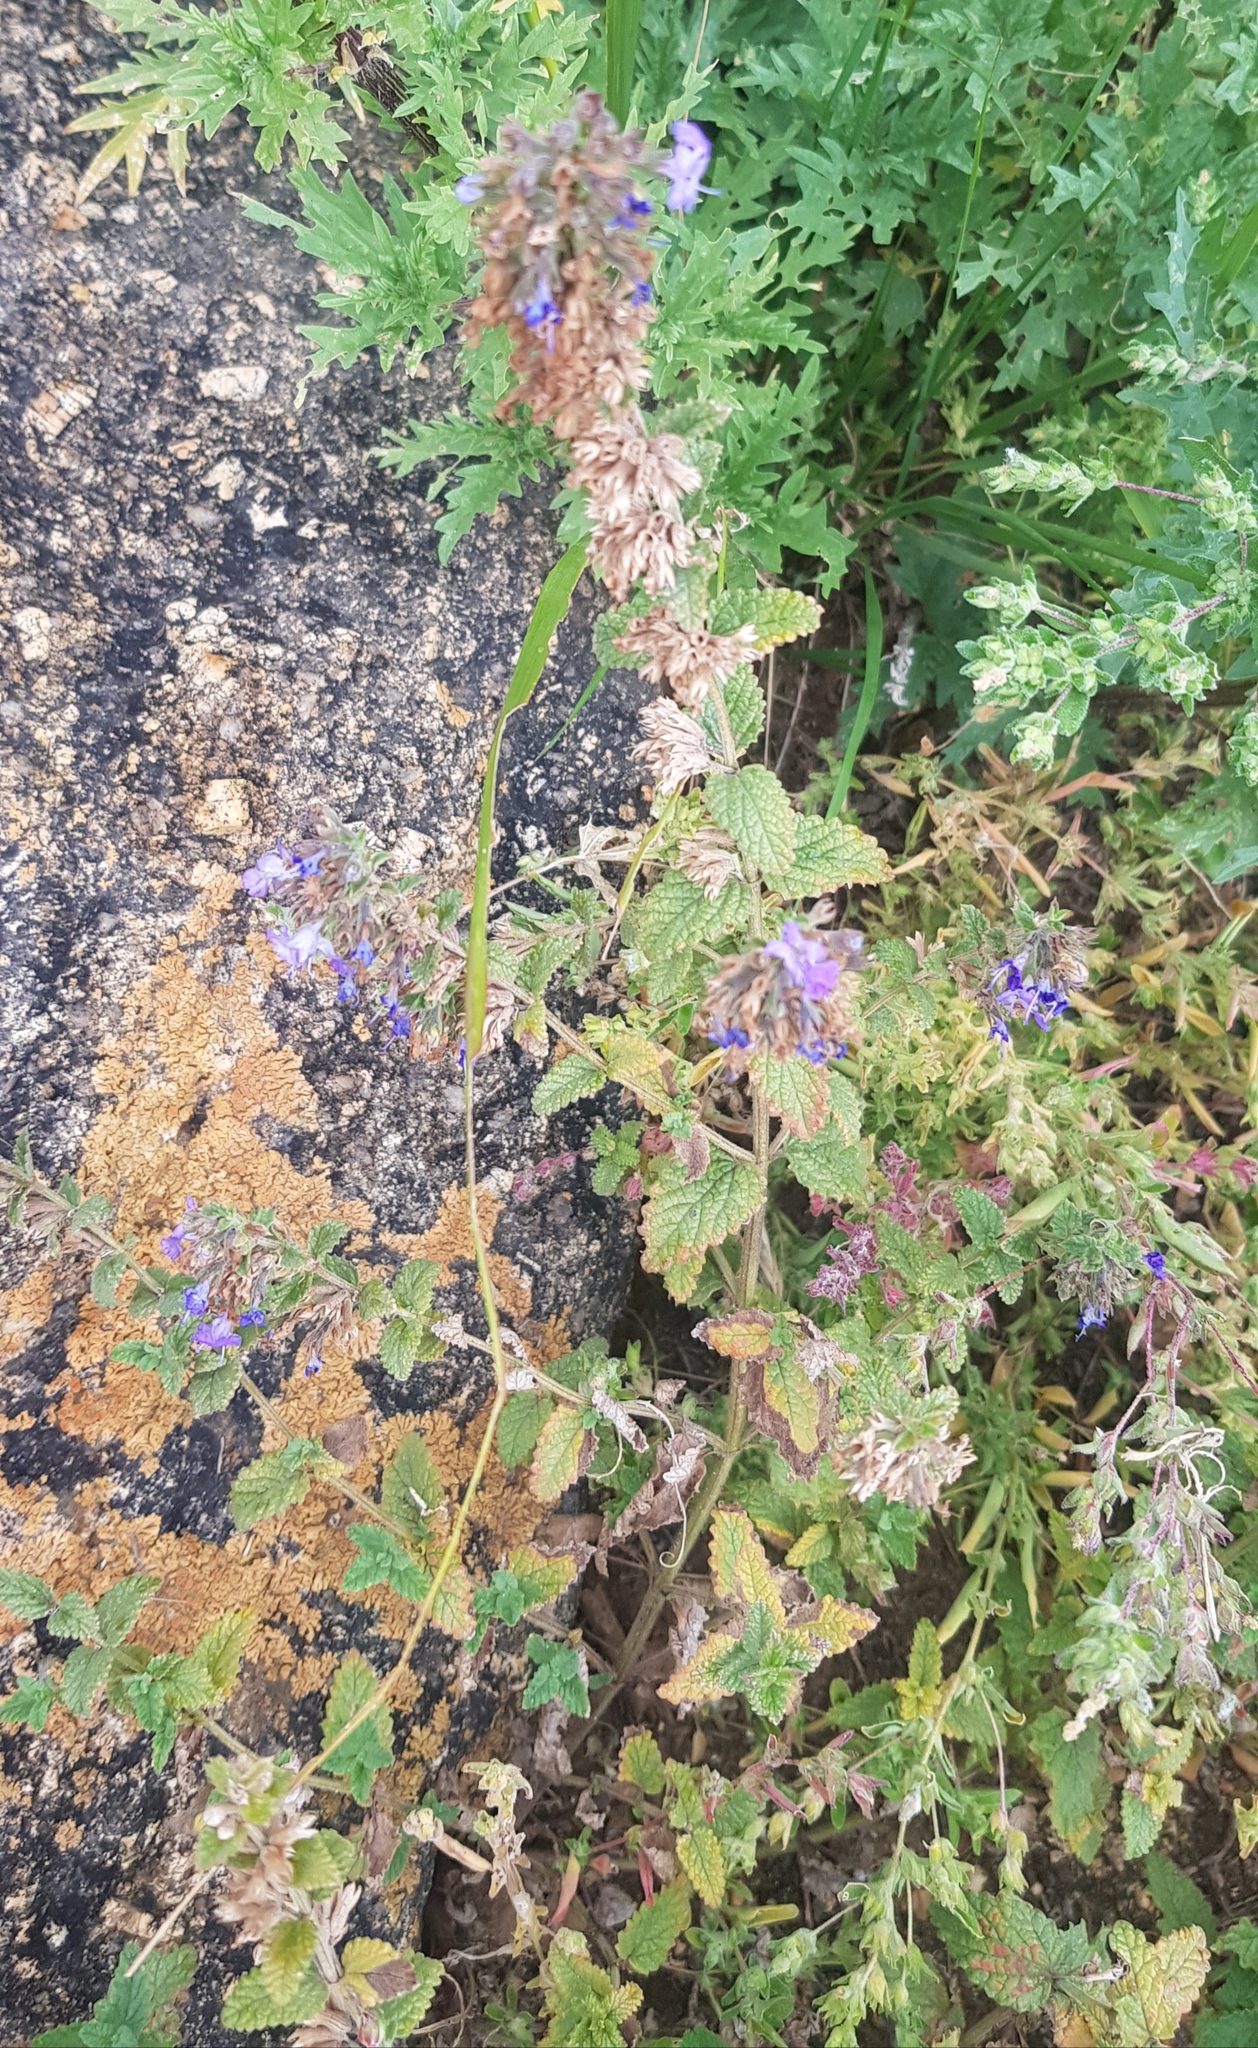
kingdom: Plantae
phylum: Tracheophyta
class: Magnoliopsida
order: Lamiales
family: Lamiaceae
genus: Nepeta
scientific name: Nepeta lophanthus
